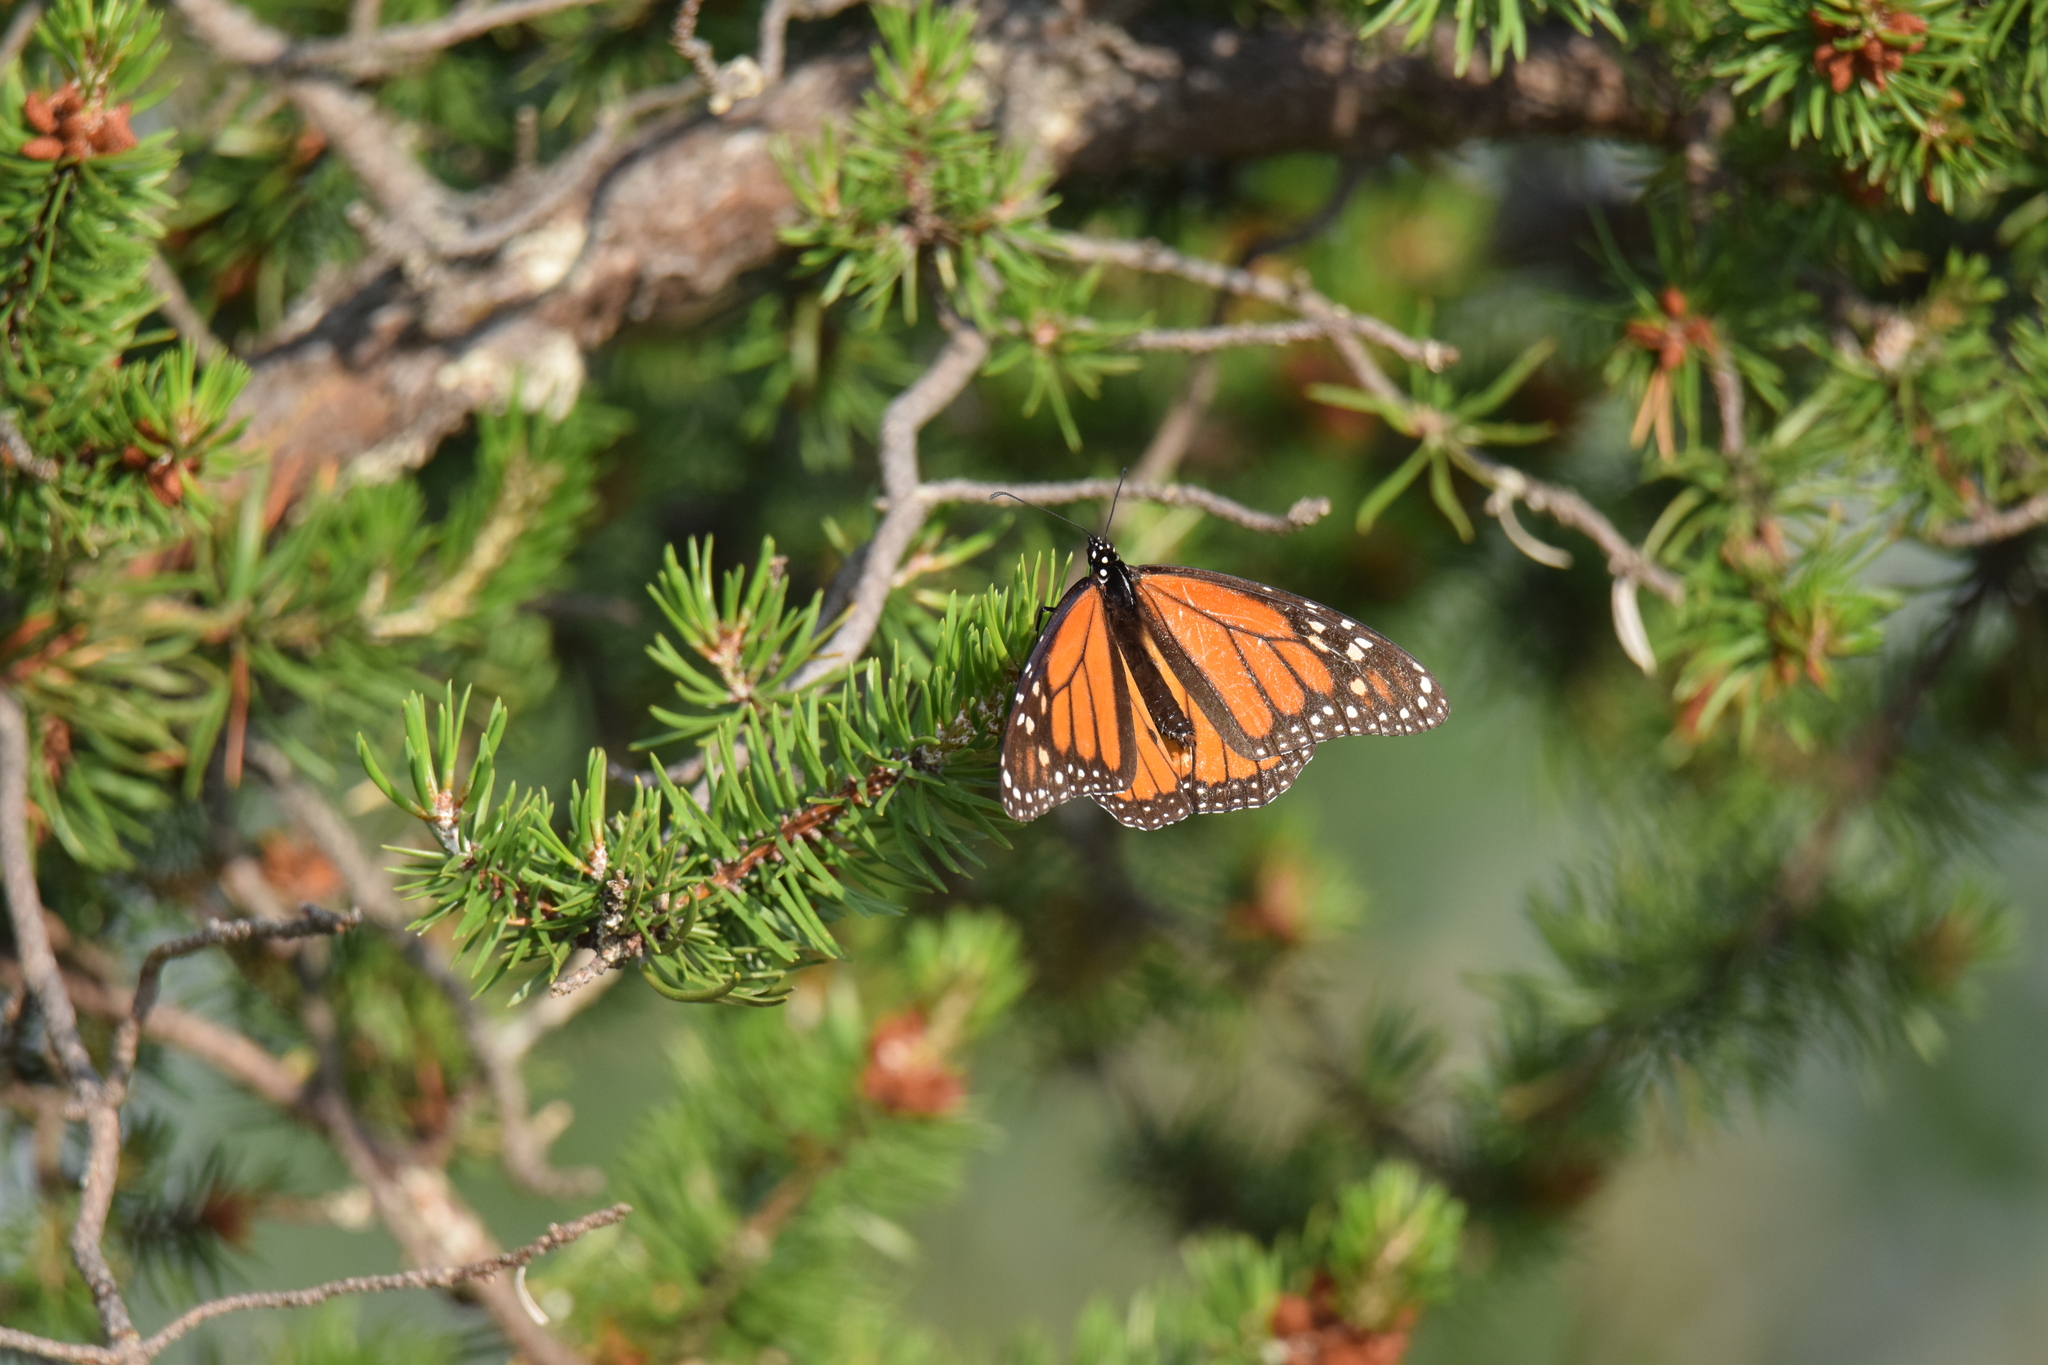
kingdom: Animalia
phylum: Arthropoda
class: Insecta
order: Lepidoptera
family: Nymphalidae
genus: Danaus
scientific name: Danaus plexippus
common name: Monarch
